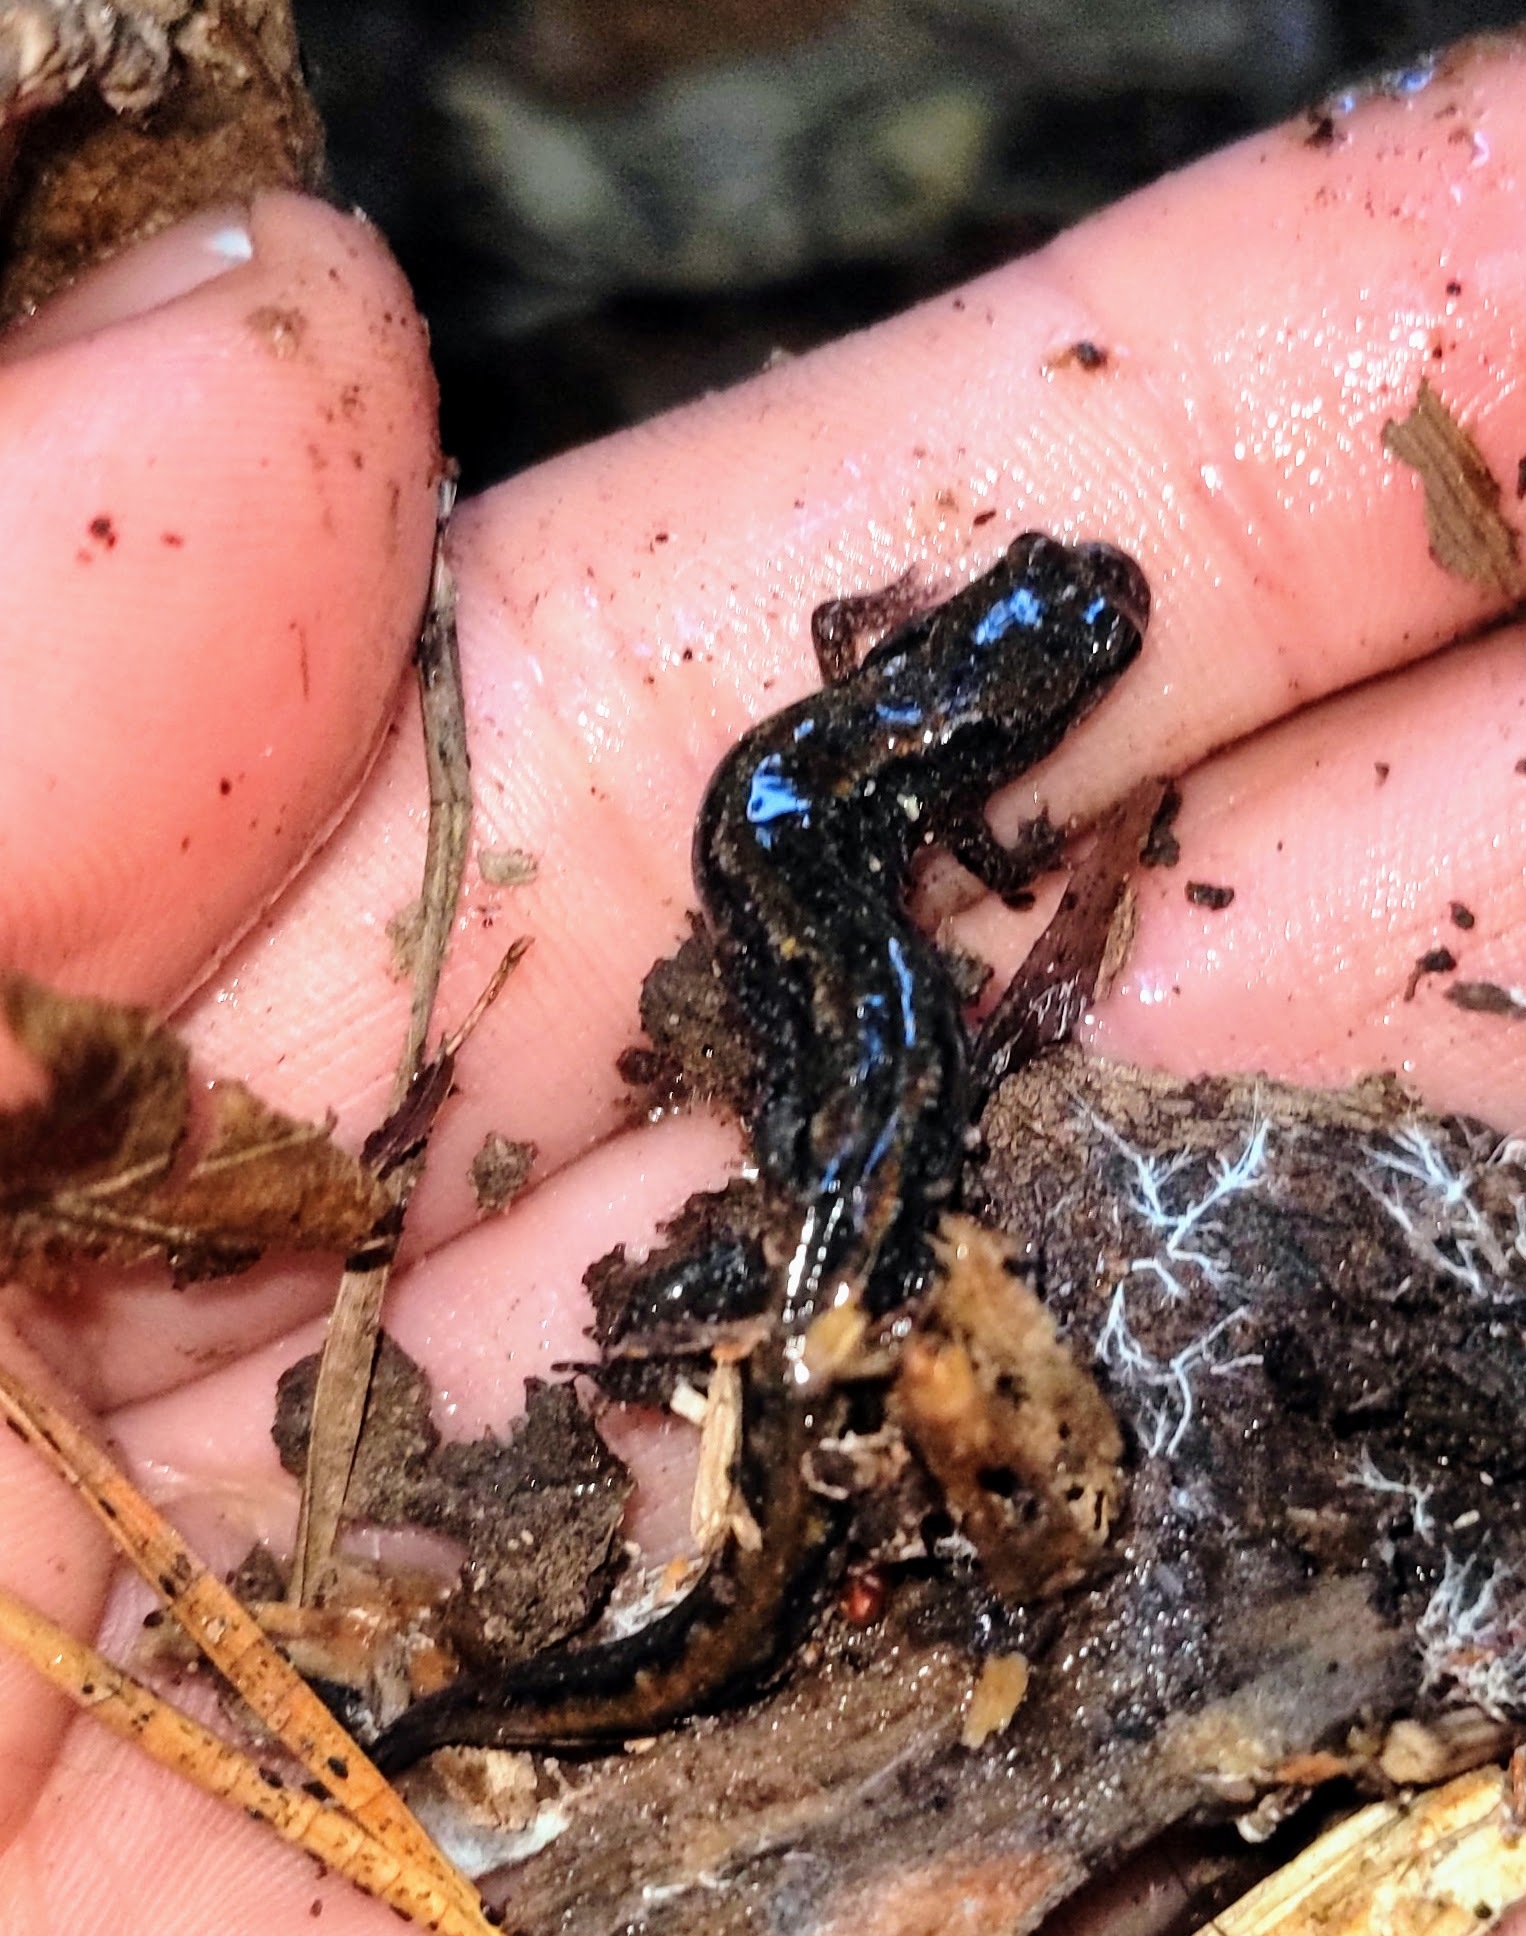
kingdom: Animalia
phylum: Chordata
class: Amphibia
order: Caudata
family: Plethodontidae
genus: Desmognathus
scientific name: Desmognathus fuscus
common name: Northern dusky salamander
